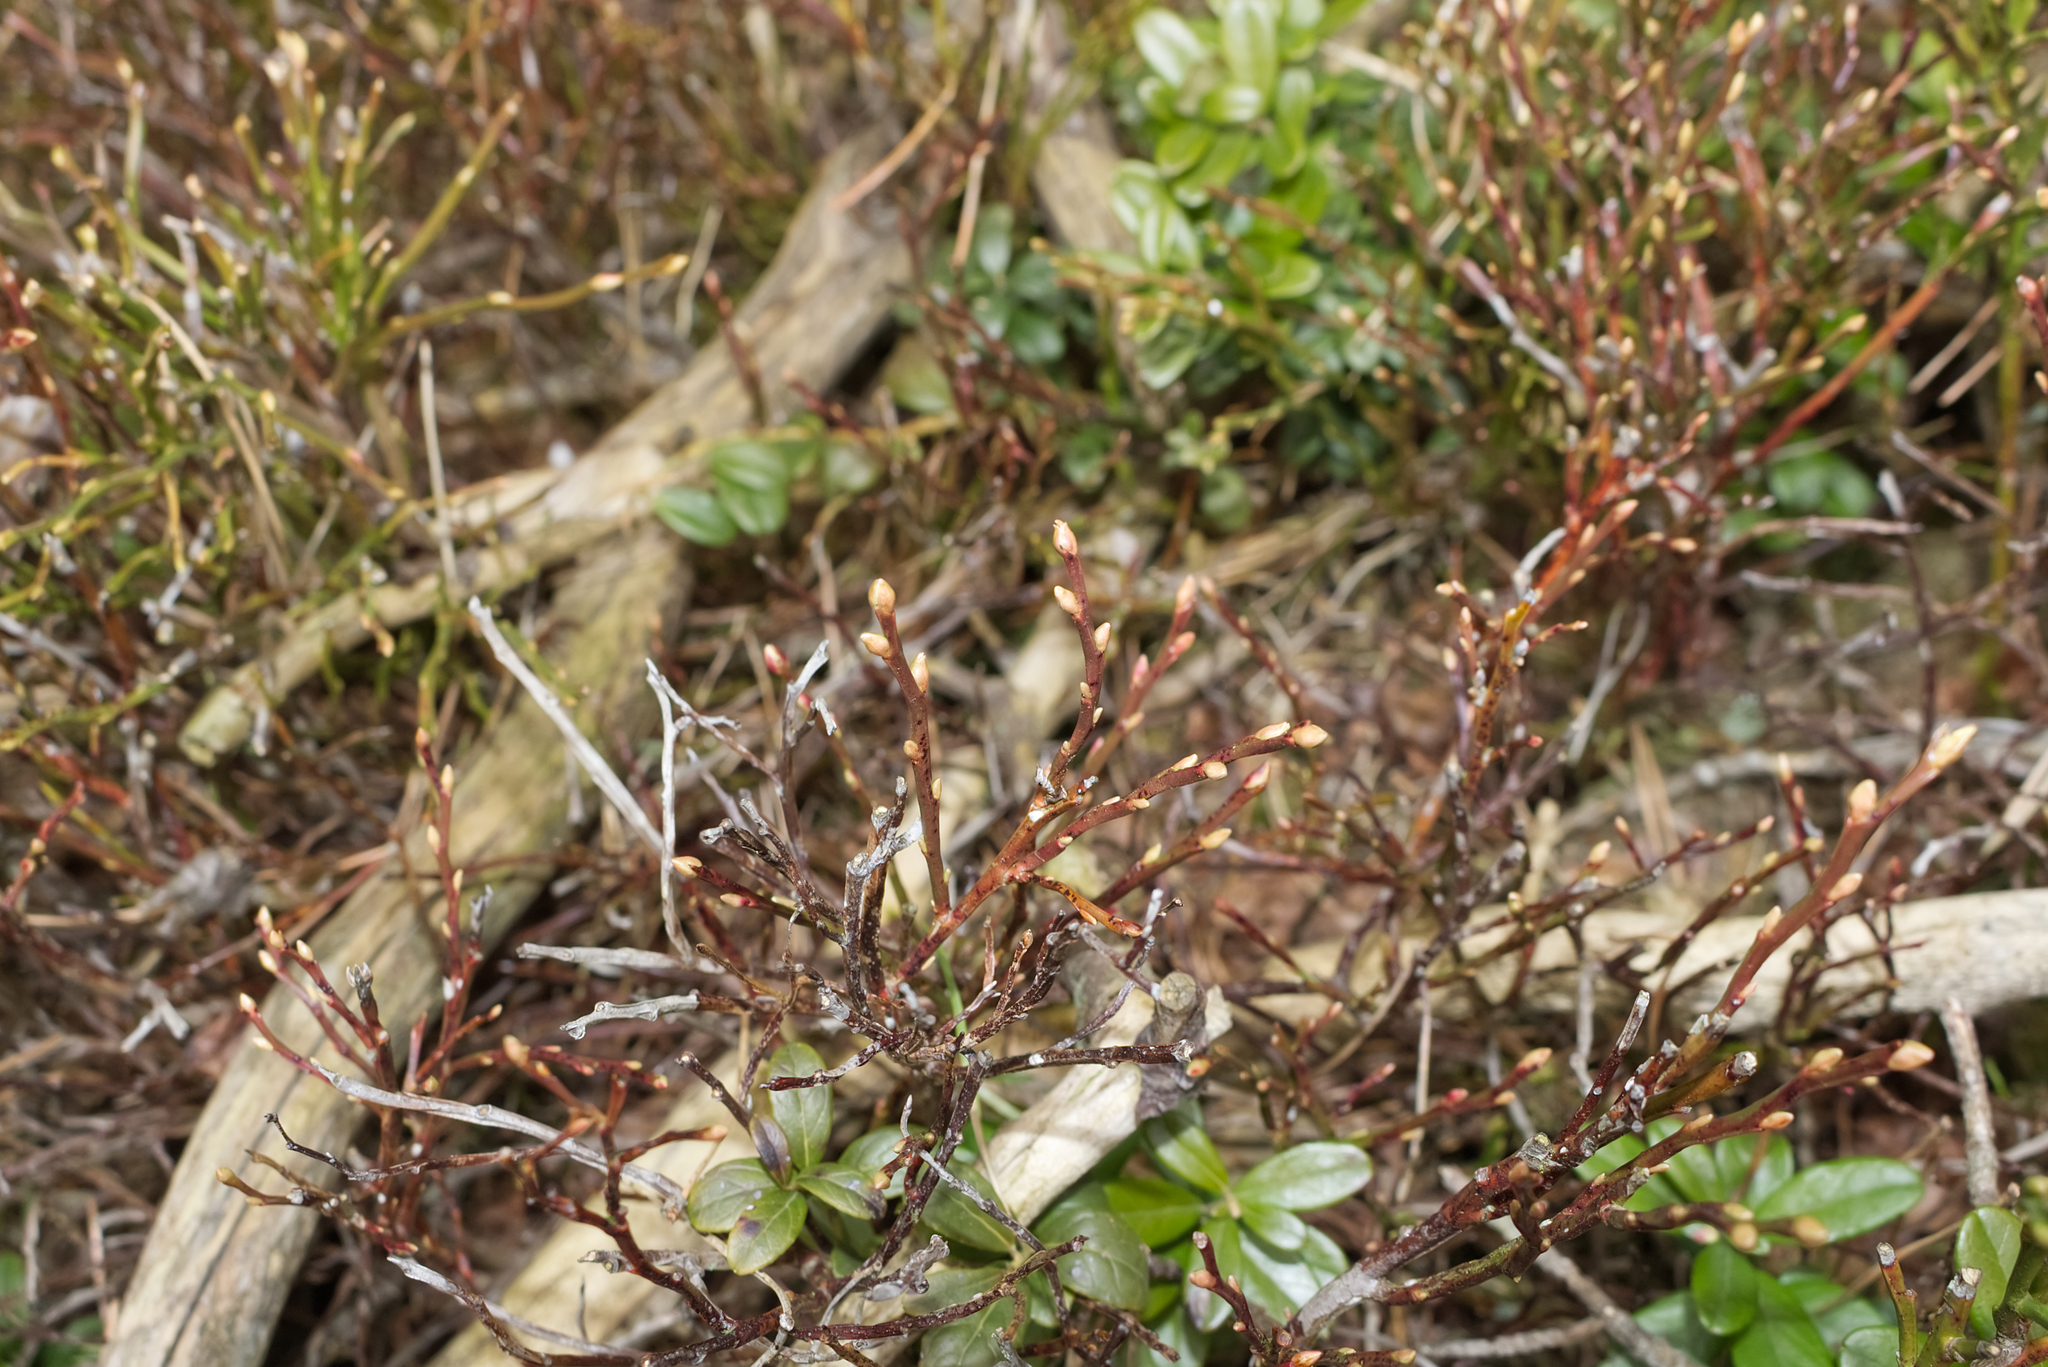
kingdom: Plantae
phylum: Tracheophyta
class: Magnoliopsida
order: Ericales
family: Ericaceae
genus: Vaccinium
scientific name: Vaccinium myrtillus
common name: Bilberry
